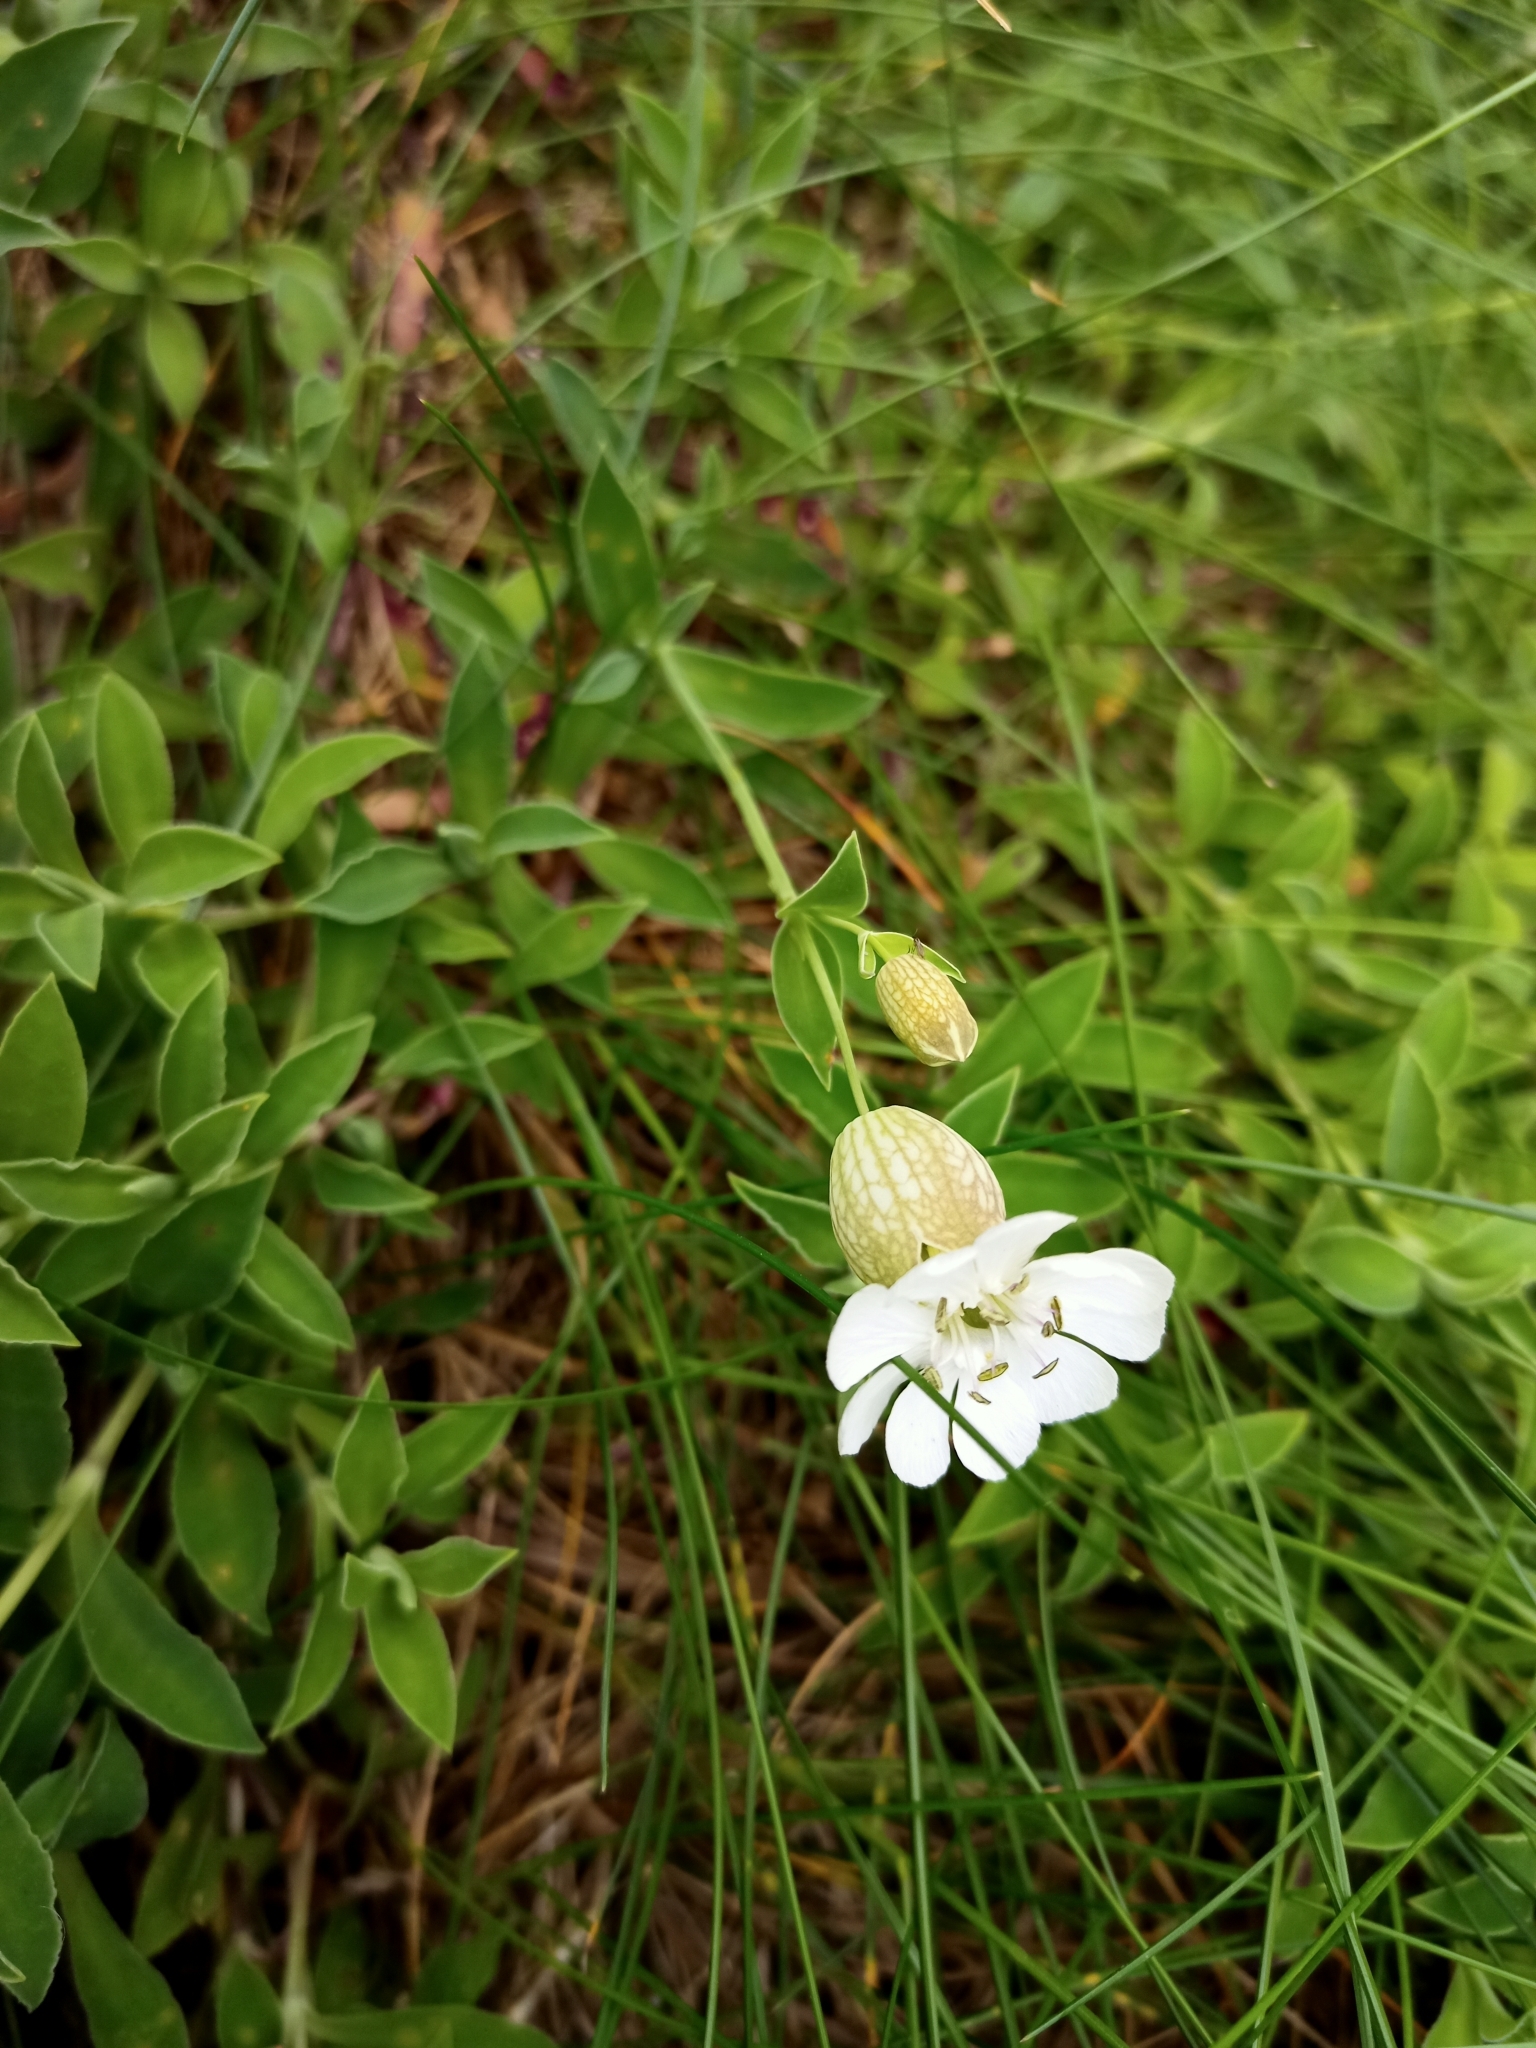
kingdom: Plantae
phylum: Tracheophyta
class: Magnoliopsida
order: Caryophyllales
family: Caryophyllaceae
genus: Silene
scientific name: Silene uniflora
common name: Sea campion
